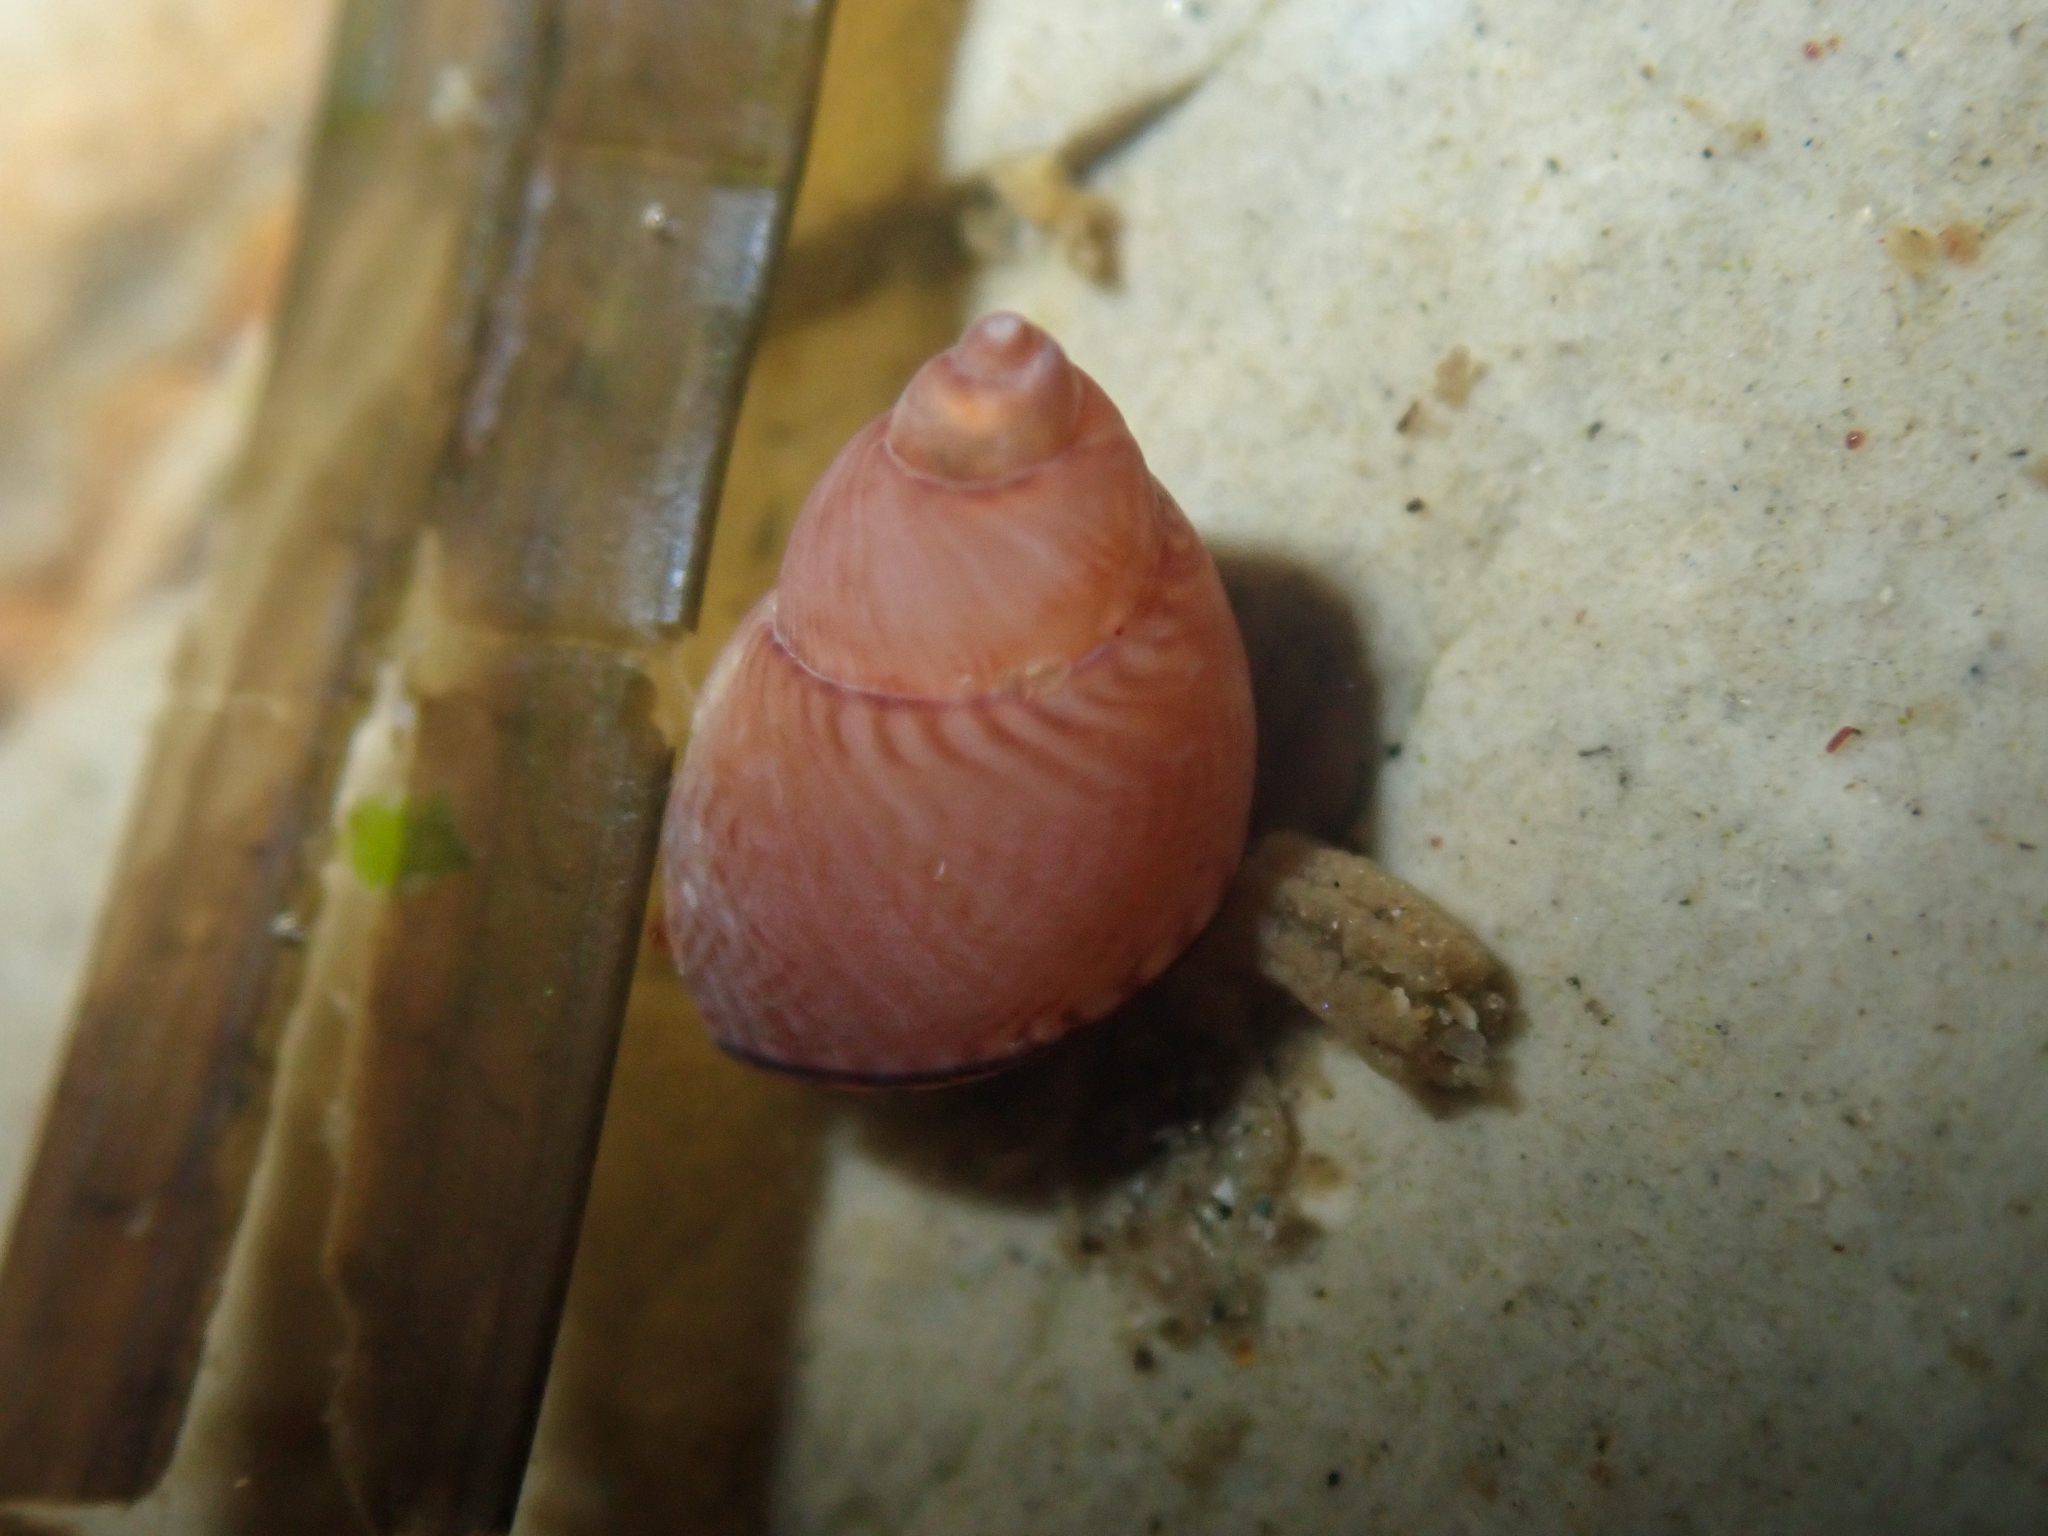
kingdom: Animalia
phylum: Mollusca
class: Gastropoda
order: Littorinimorpha
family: Littorinidae
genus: Lacuna
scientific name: Lacuna unifasciata
